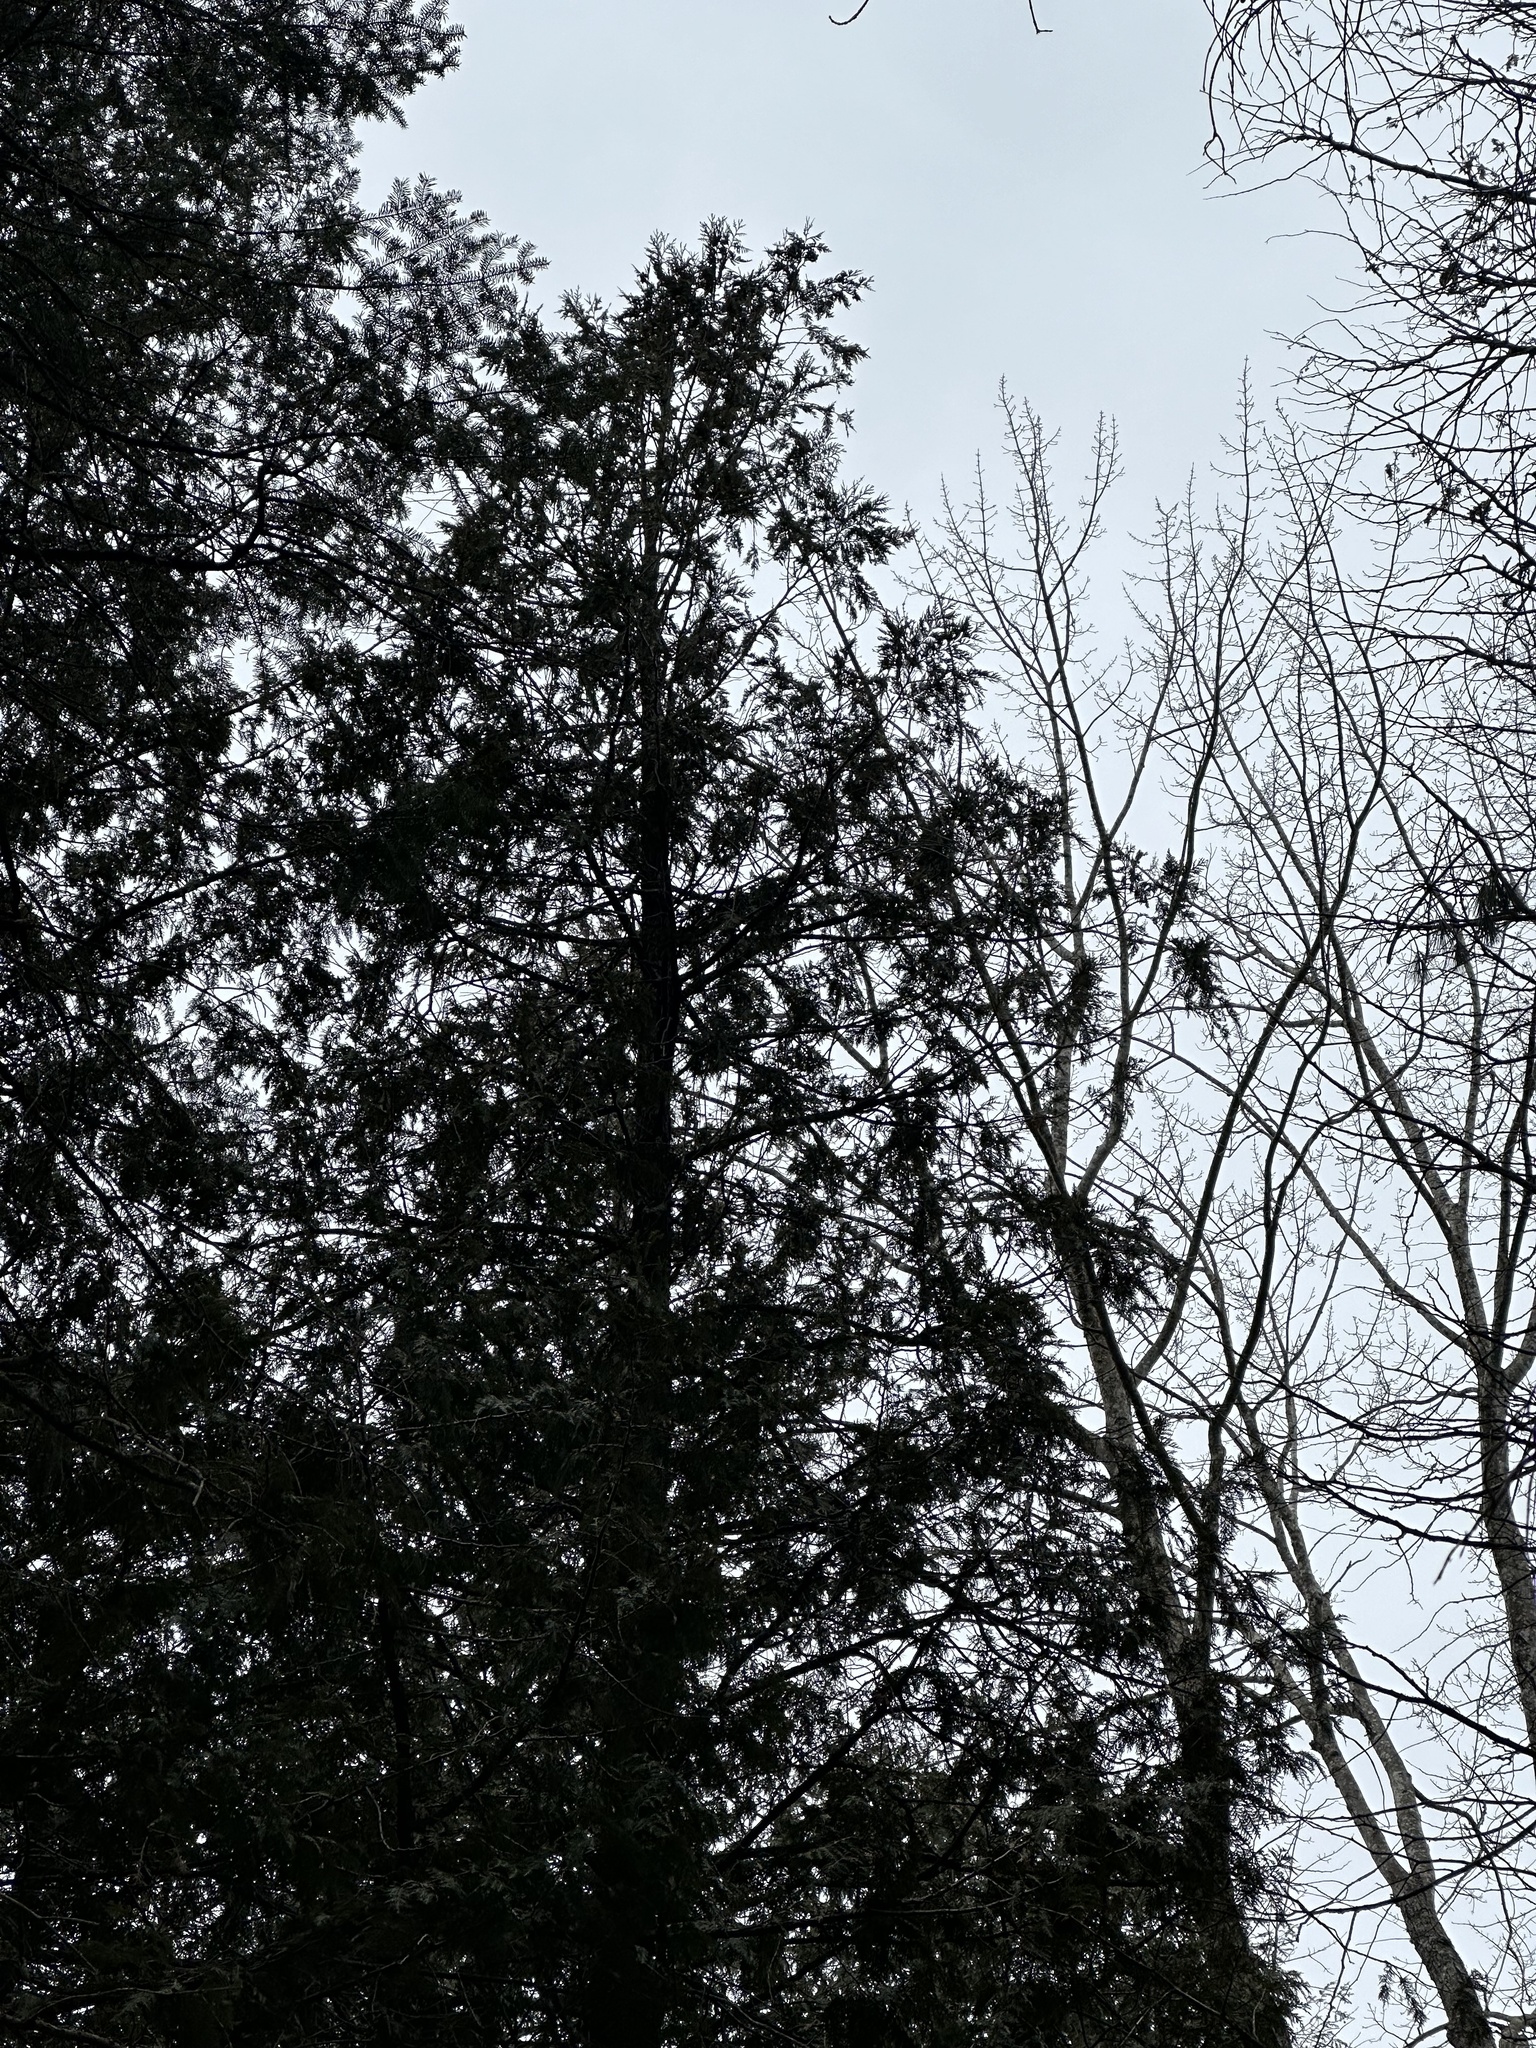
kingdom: Plantae
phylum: Tracheophyta
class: Pinopsida
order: Pinales
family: Cupressaceae
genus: Thuja
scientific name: Thuja occidentalis
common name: Northern white-cedar
